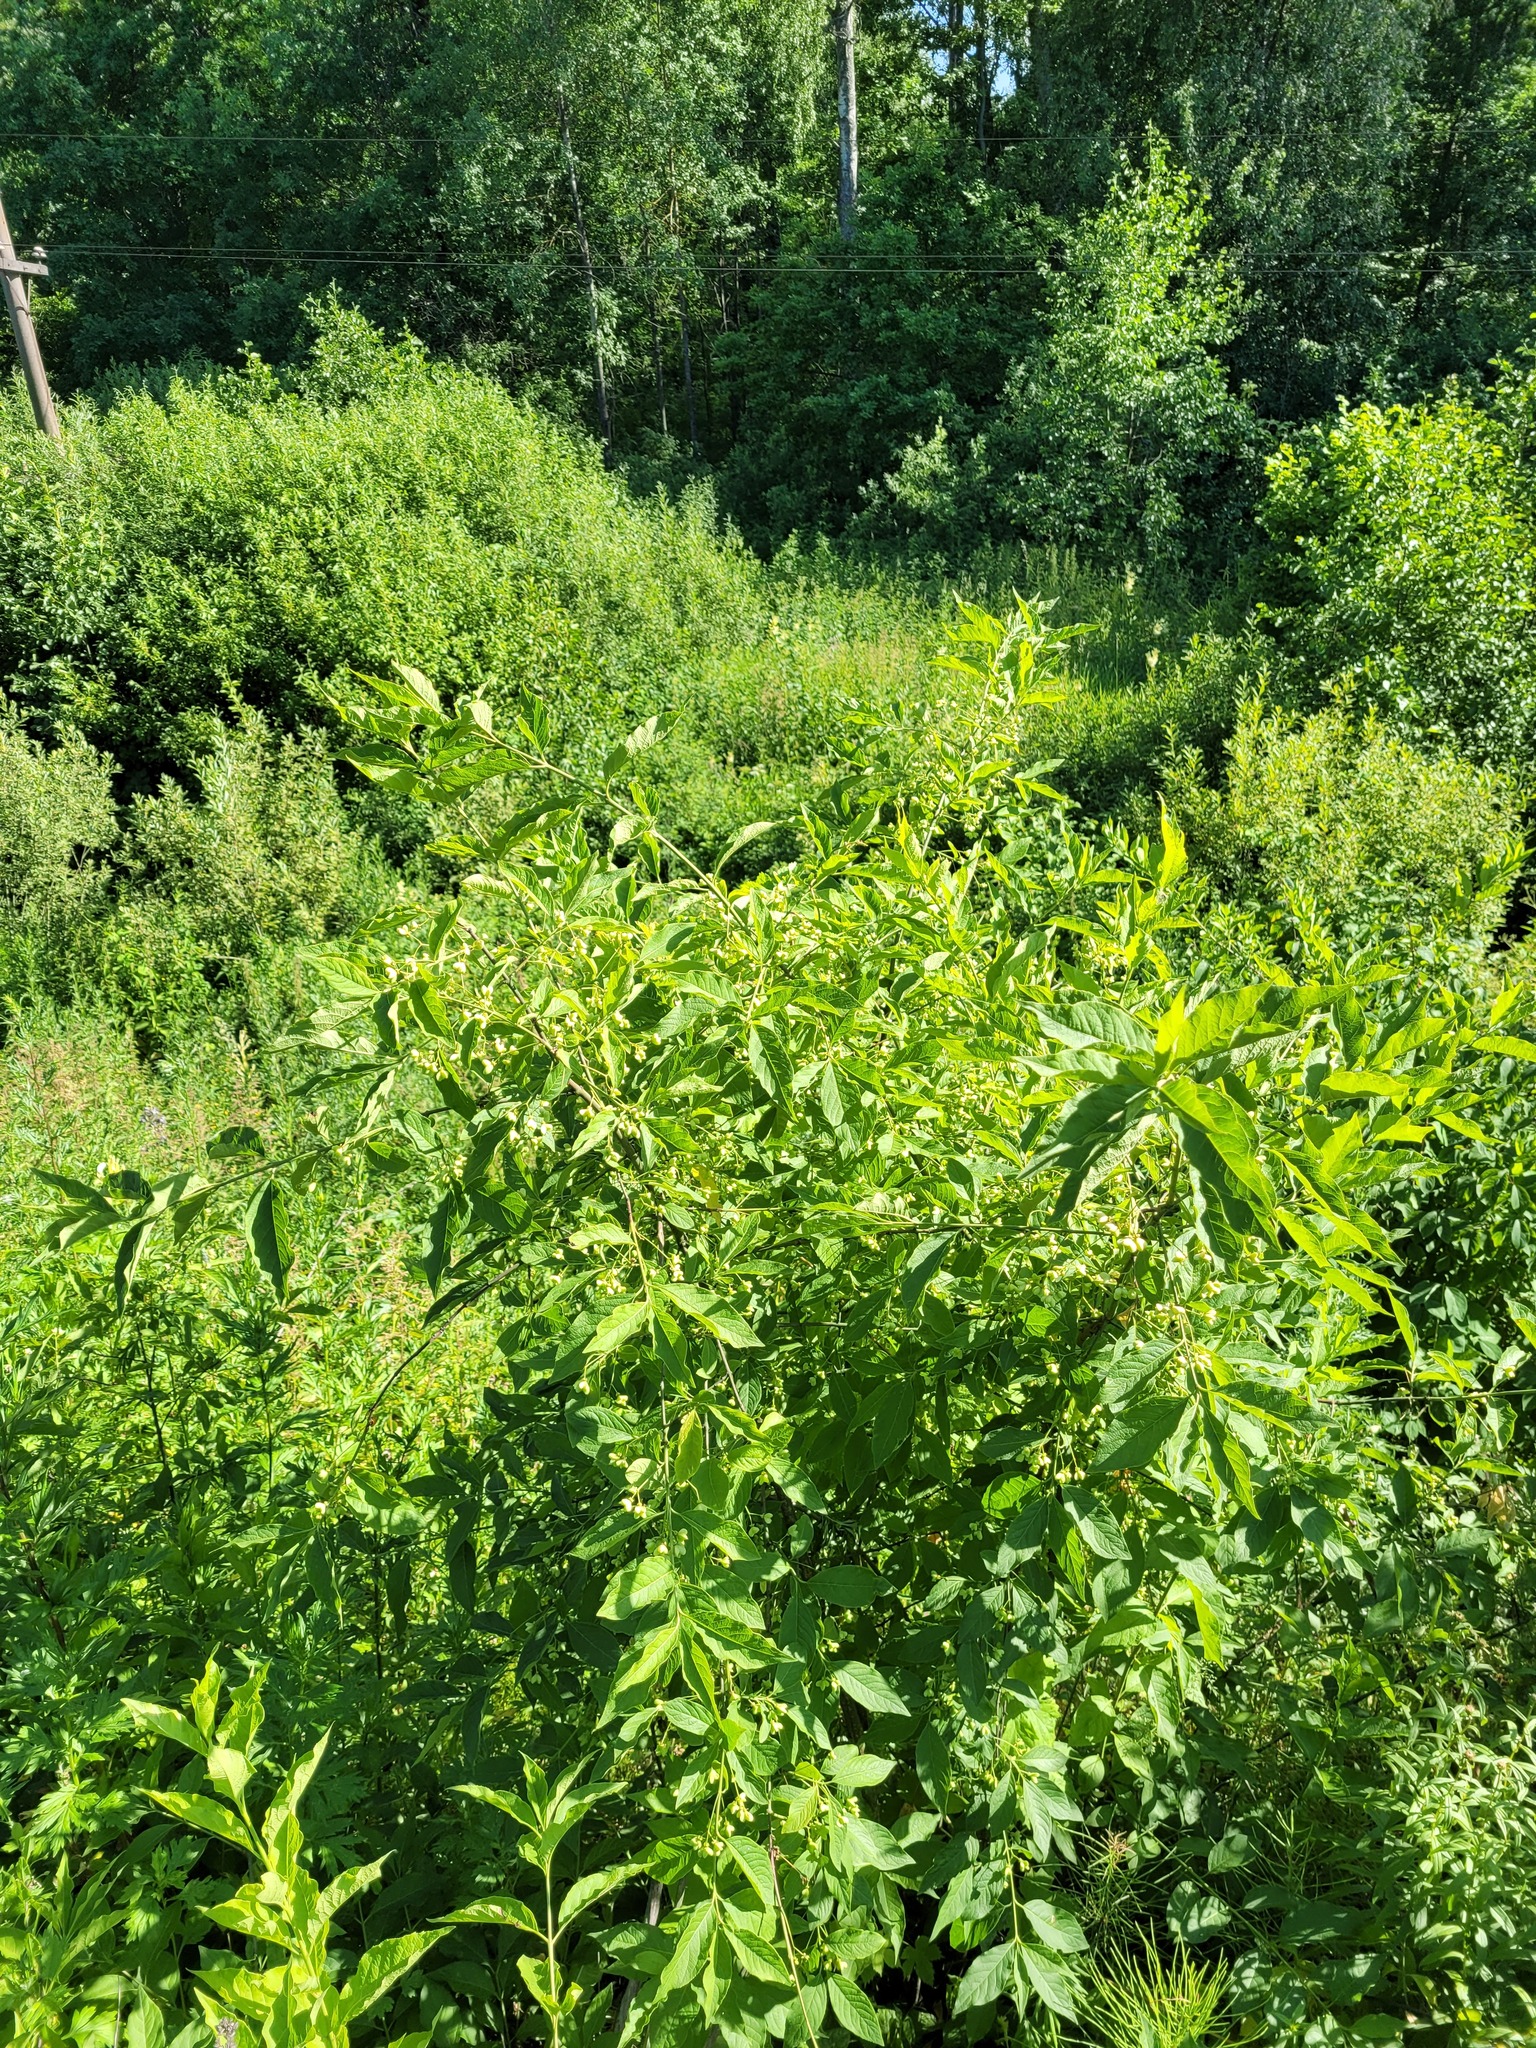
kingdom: Plantae
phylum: Tracheophyta
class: Magnoliopsida
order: Celastrales
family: Celastraceae
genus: Euonymus
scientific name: Euonymus europaeus
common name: Spindle
